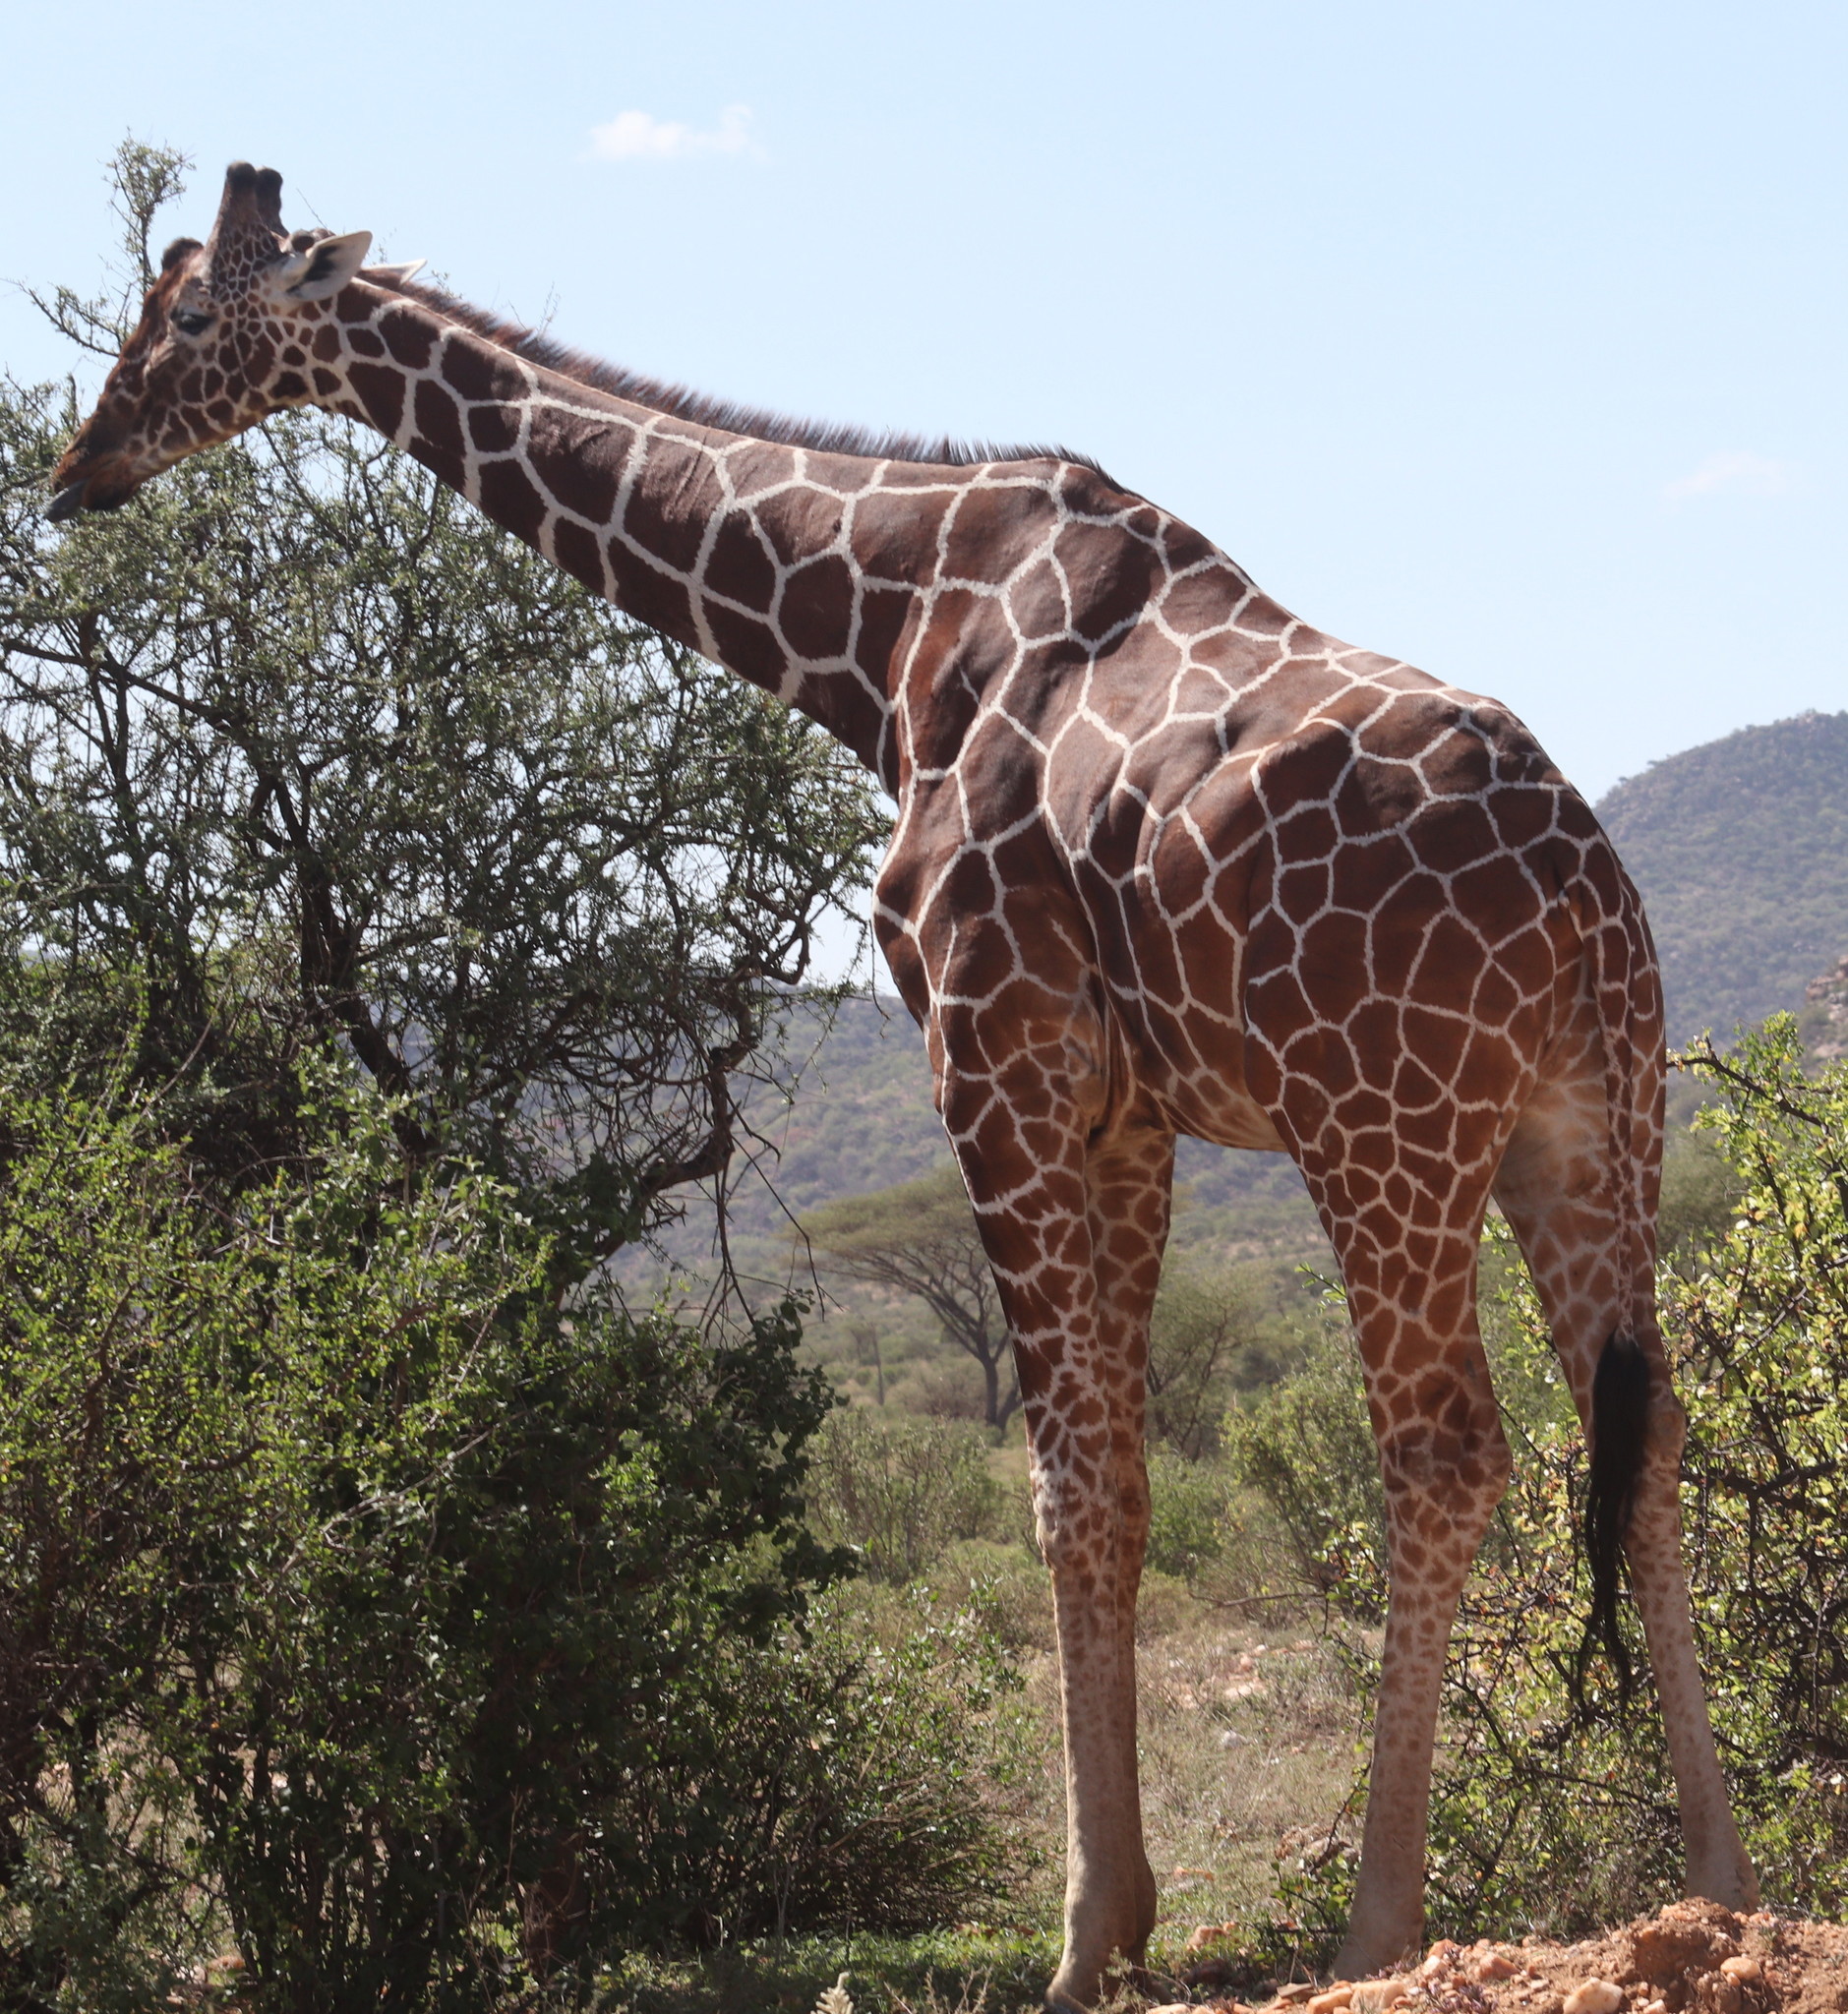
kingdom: Animalia
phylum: Chordata
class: Mammalia
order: Artiodactyla
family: Giraffidae
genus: Giraffa
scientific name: Giraffa reticulata
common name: Reticulated giraffe
